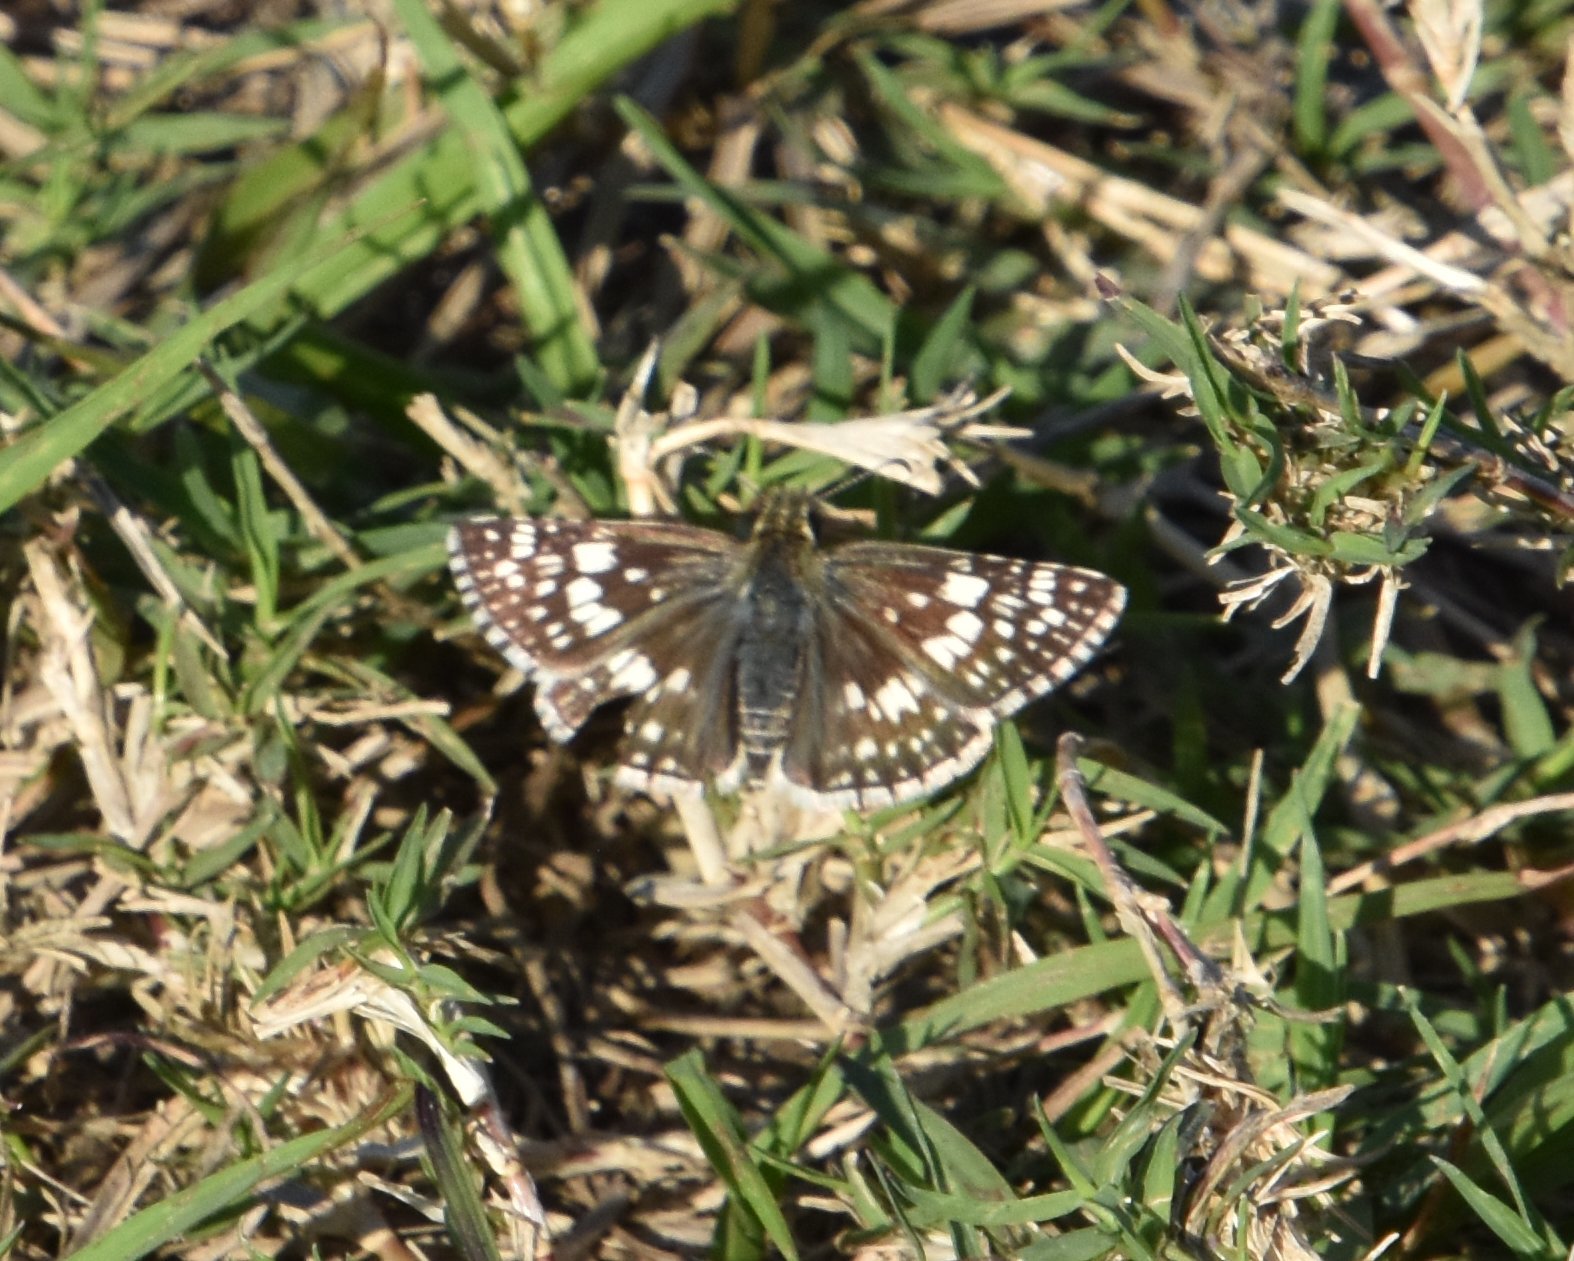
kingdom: Animalia
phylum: Arthropoda
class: Insecta
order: Lepidoptera
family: Hesperiidae
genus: Burnsius
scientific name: Burnsius albezens
